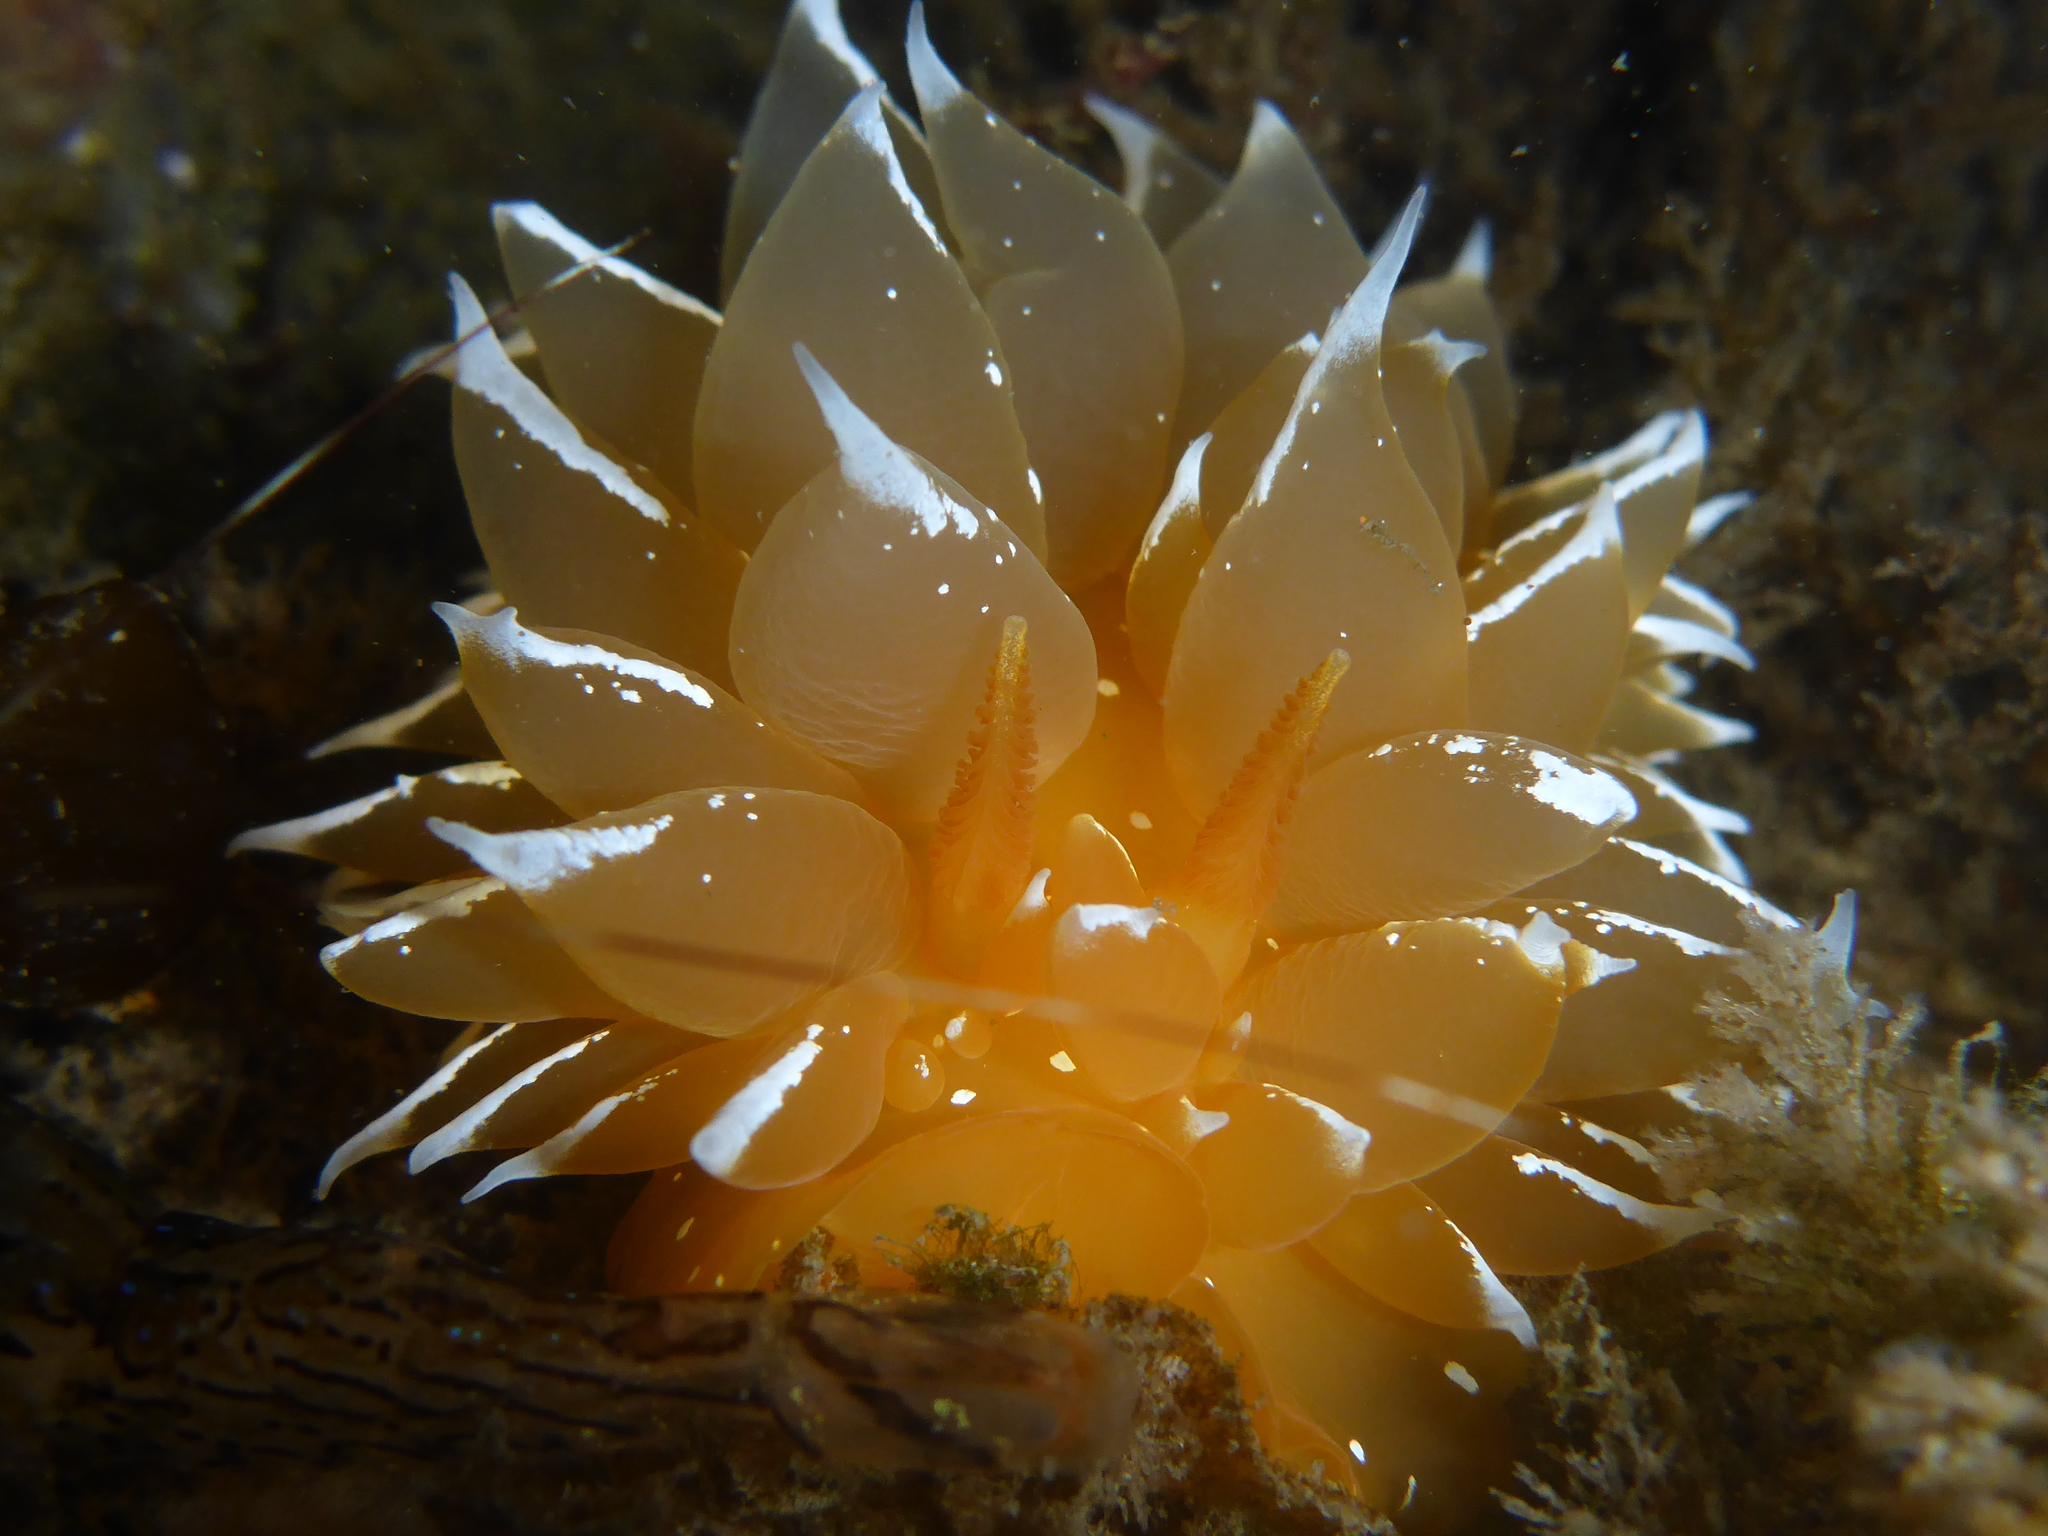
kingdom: Animalia
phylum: Mollusca
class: Gastropoda
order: Nudibranchia
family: Dironidae
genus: Dirona
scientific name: Dirona pellucida
